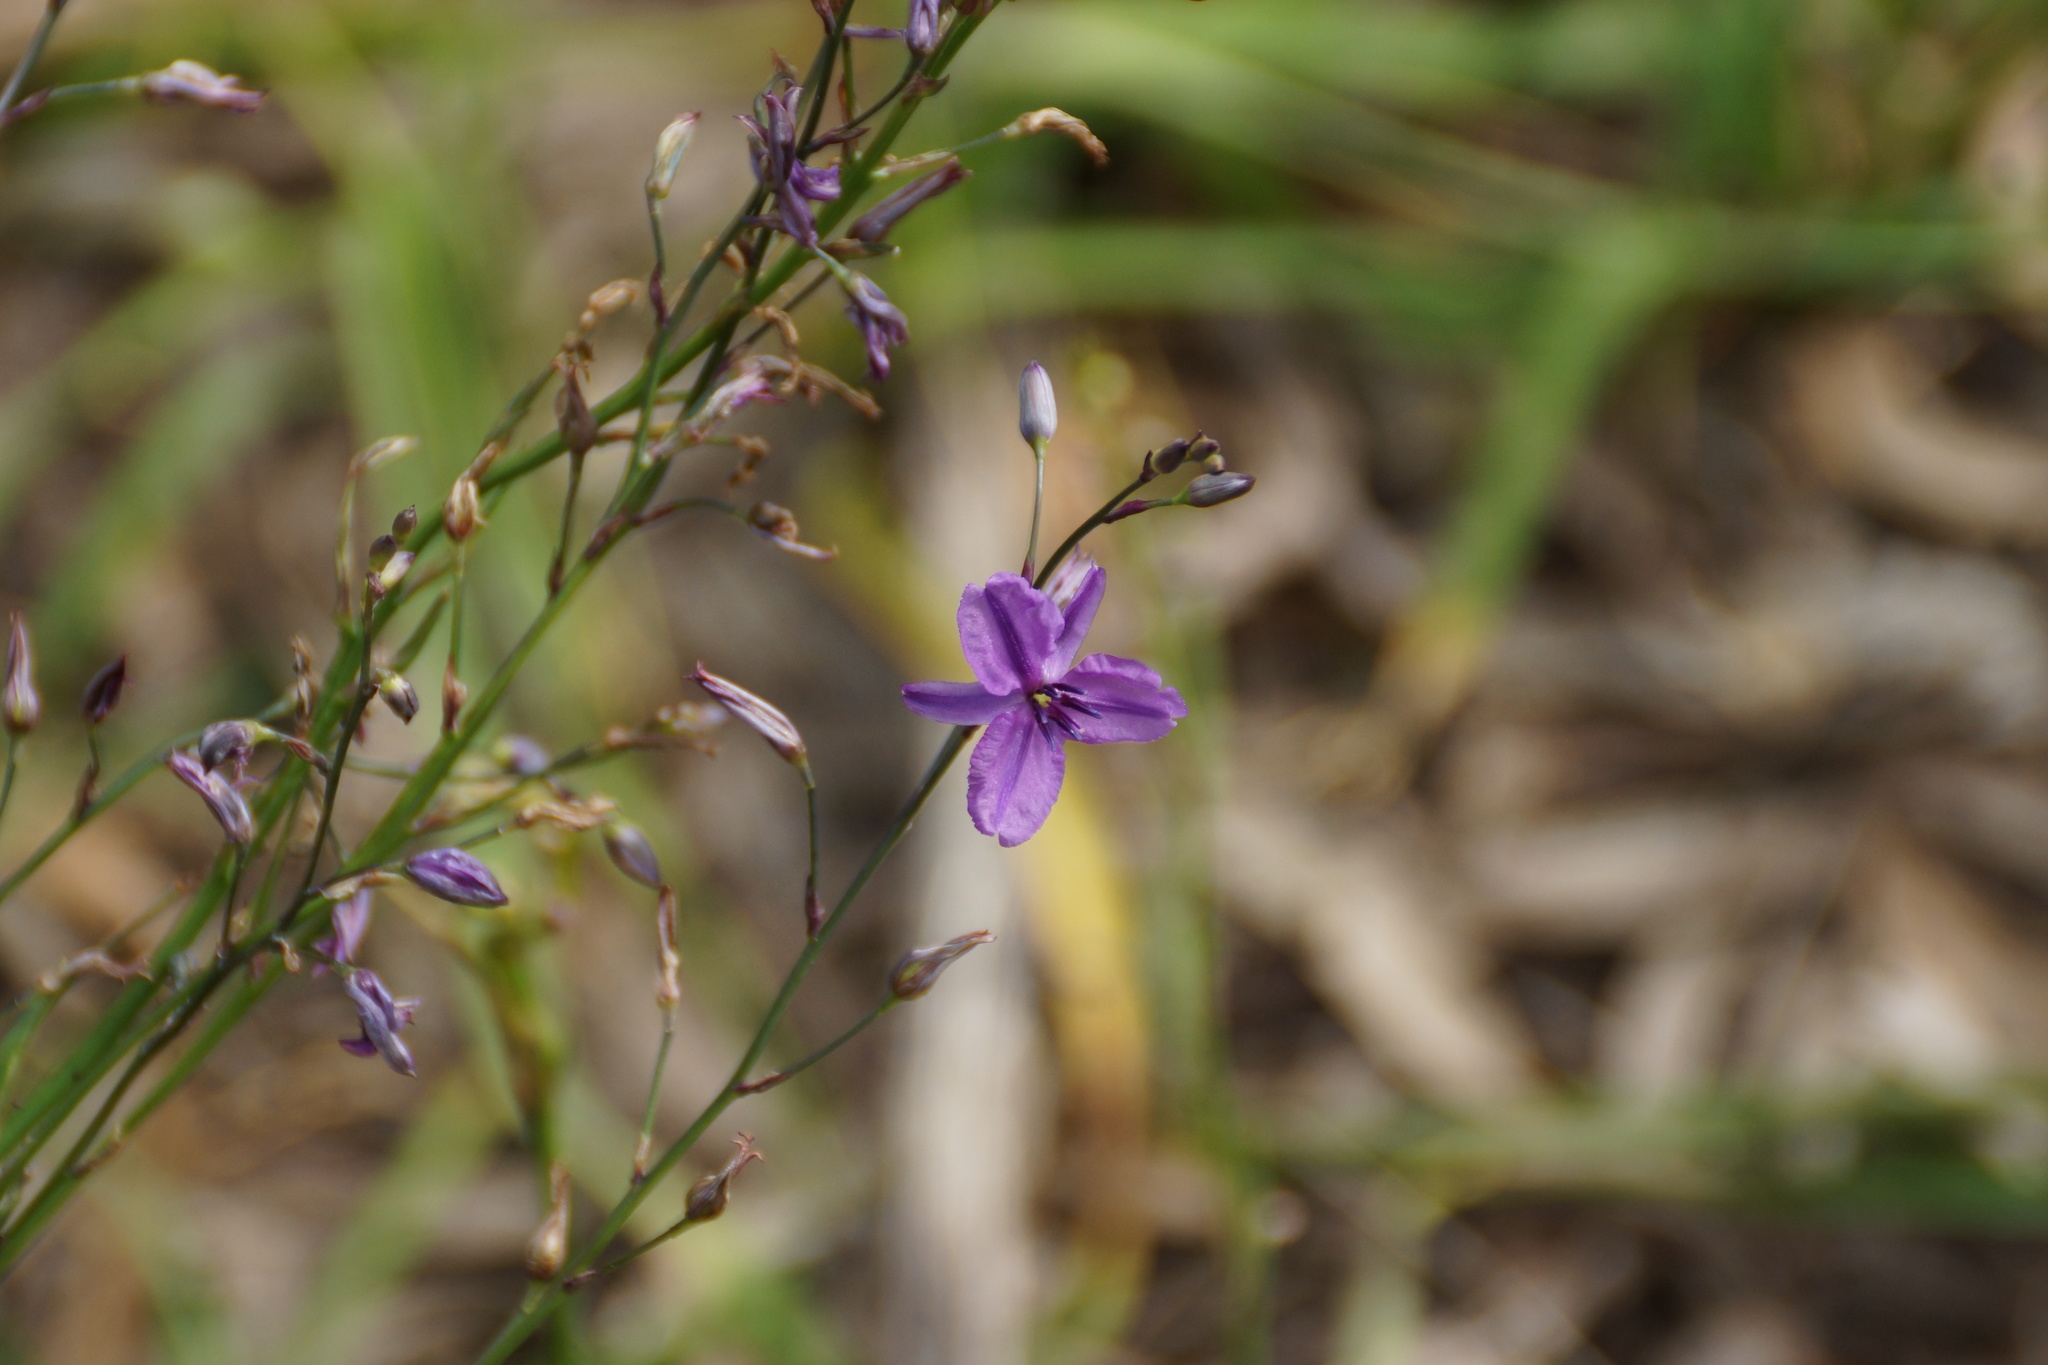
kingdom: Plantae
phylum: Tracheophyta
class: Liliopsida
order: Asparagales
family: Asparagaceae
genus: Arthropodium
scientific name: Arthropodium strictum
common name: Chocolate-lily
